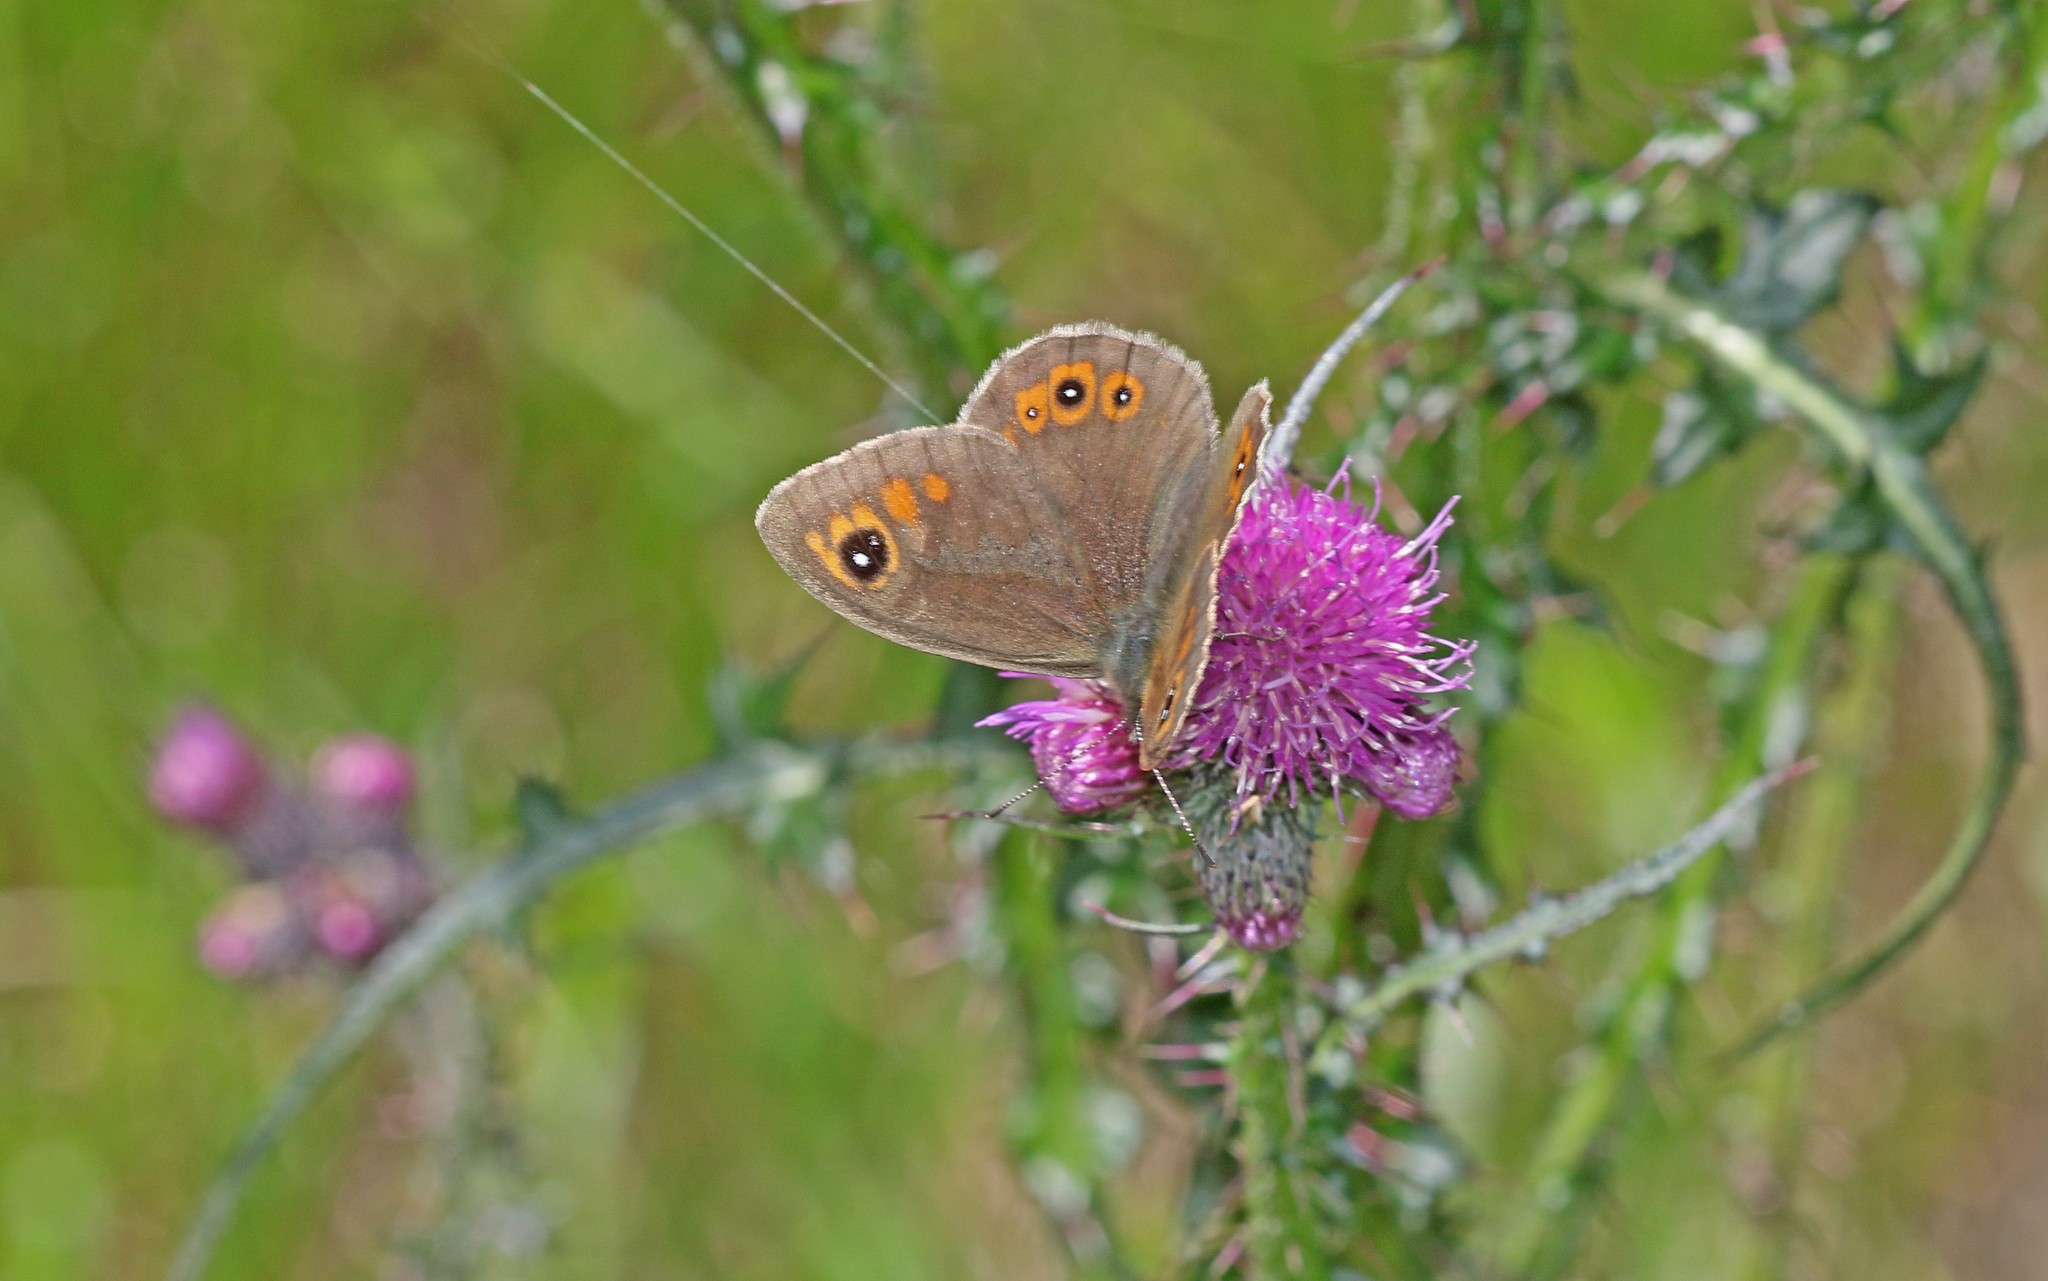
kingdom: Animalia
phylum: Arthropoda
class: Insecta
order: Lepidoptera
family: Nymphalidae
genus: Pararge
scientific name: Pararge Lasiommata maera
